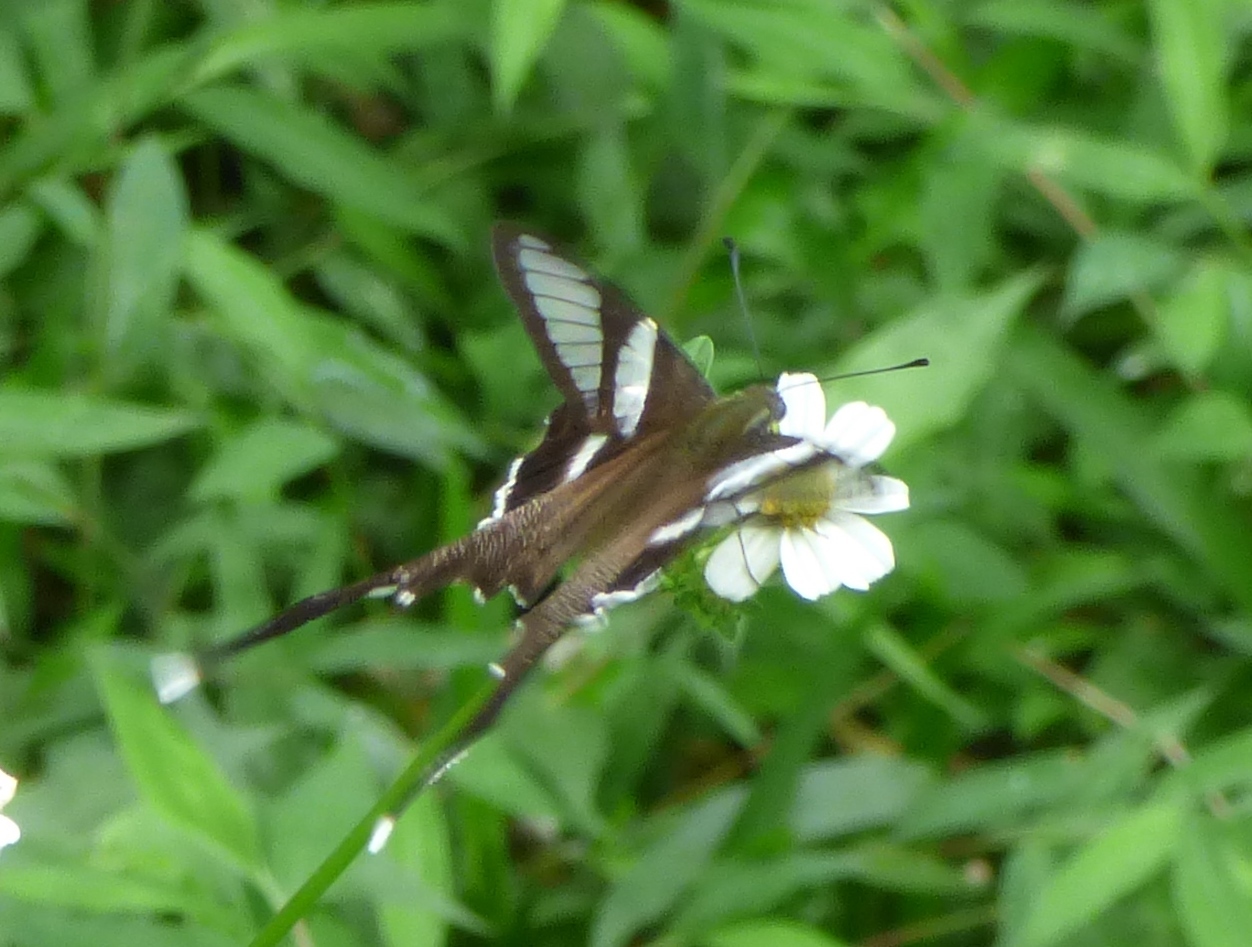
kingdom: Animalia
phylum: Arthropoda
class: Insecta
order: Lepidoptera
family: Papilionidae
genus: Lamproptera
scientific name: Lamproptera curius
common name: White dragontail
